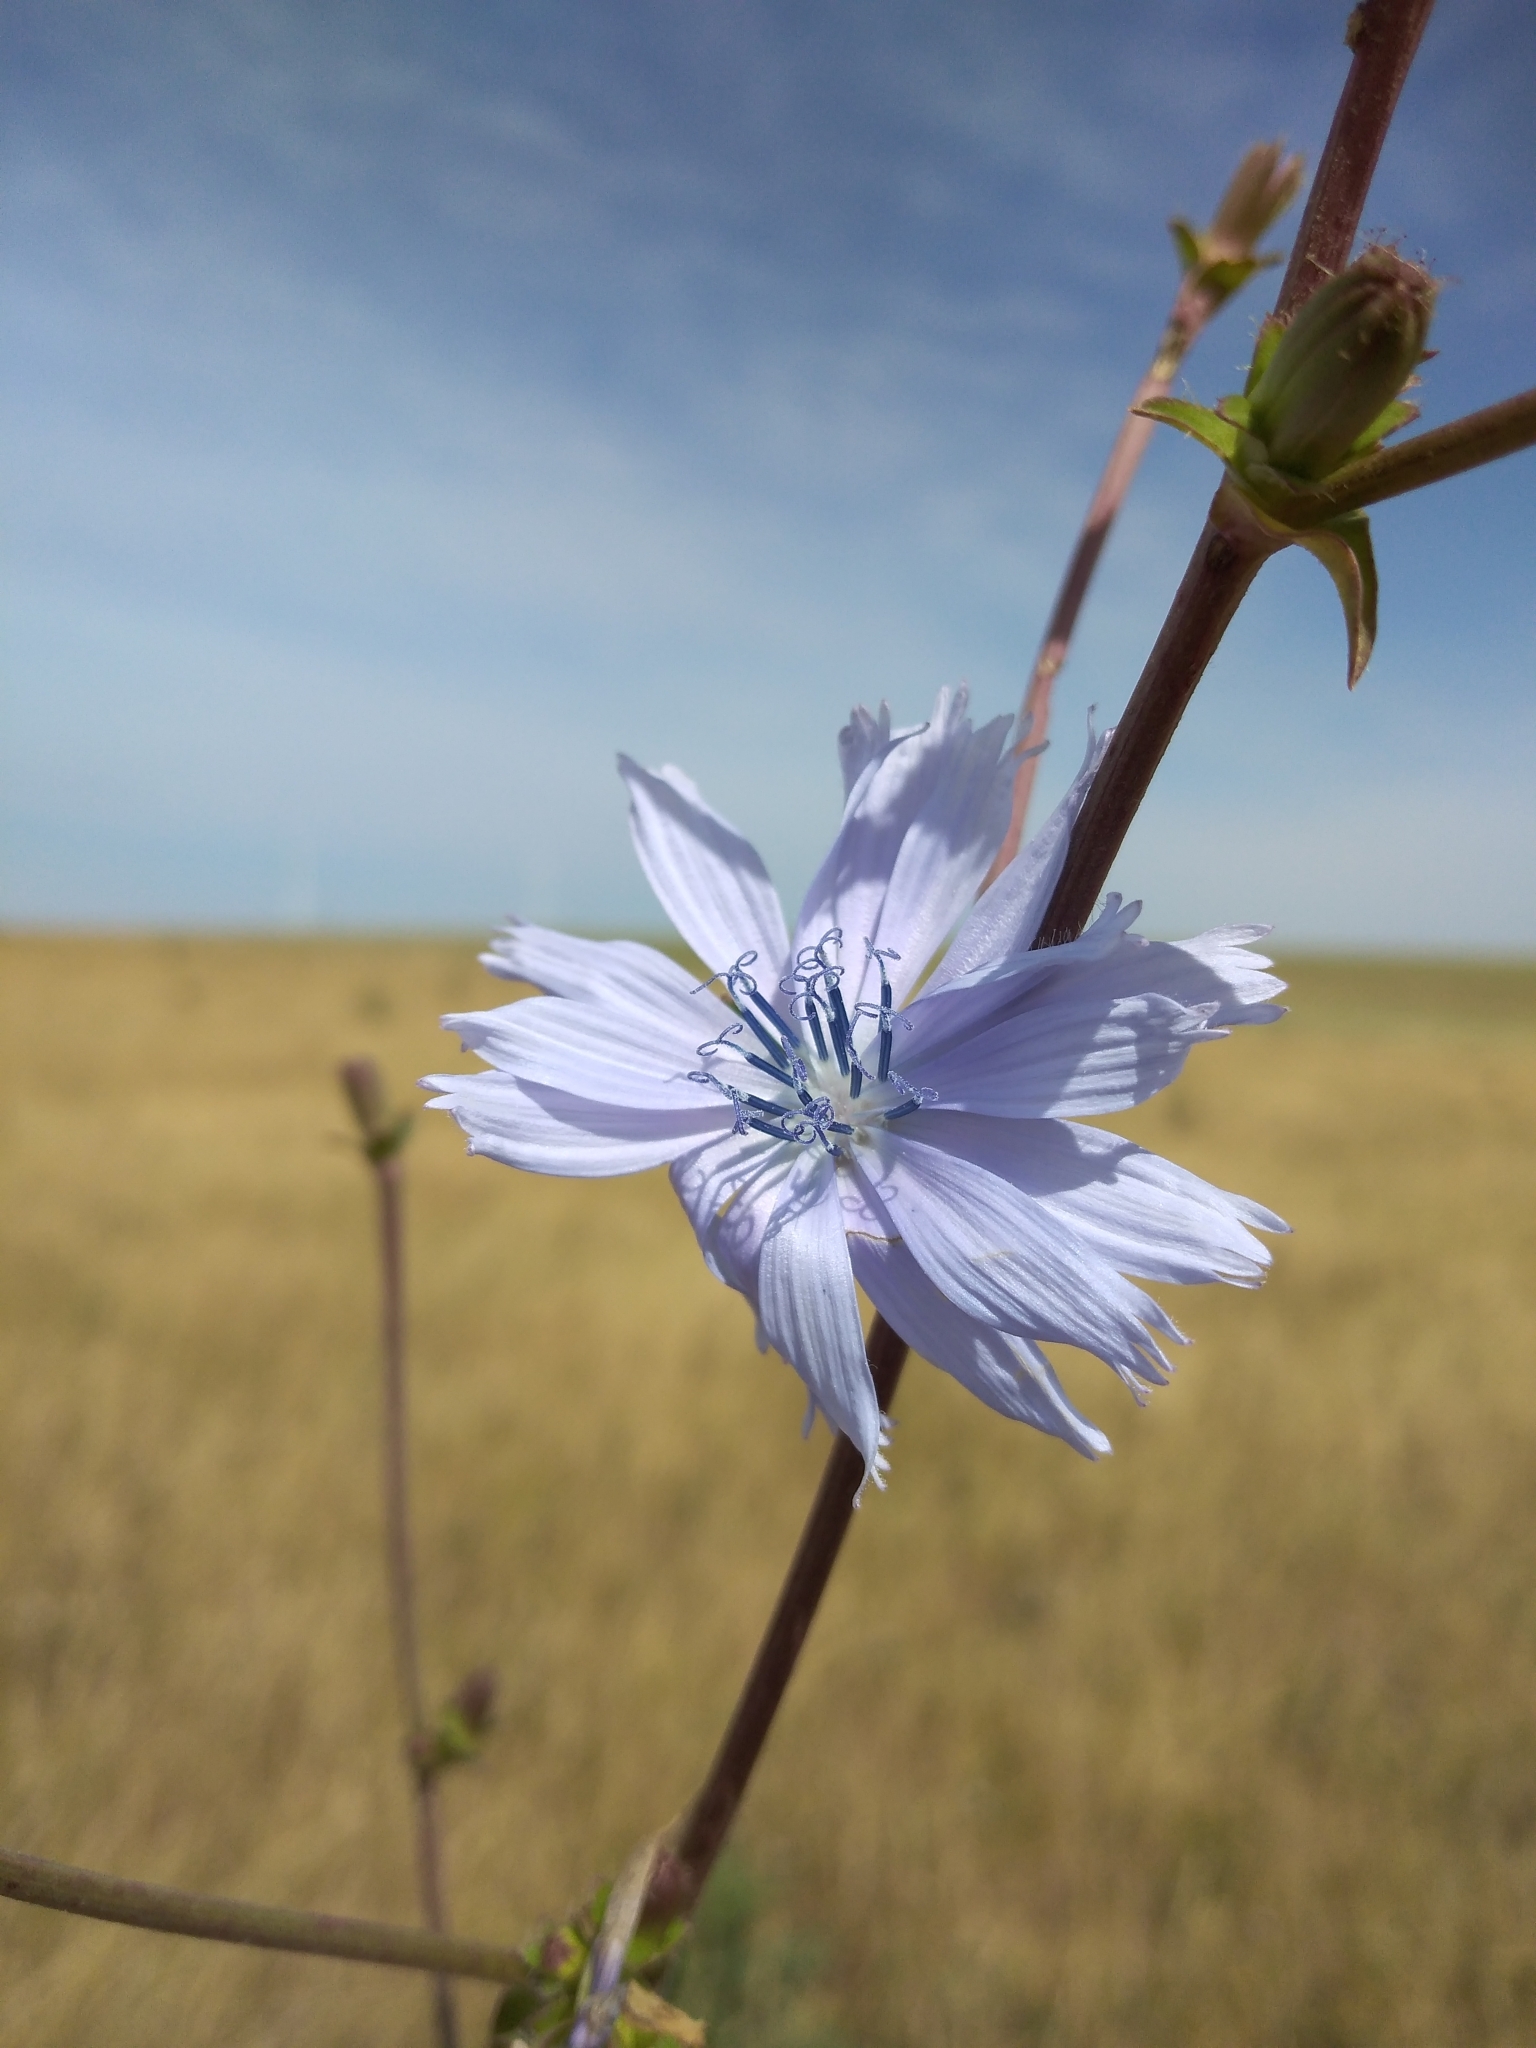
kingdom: Plantae
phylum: Tracheophyta
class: Magnoliopsida
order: Asterales
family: Asteraceae
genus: Cichorium
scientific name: Cichorium intybus
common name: Chicory
